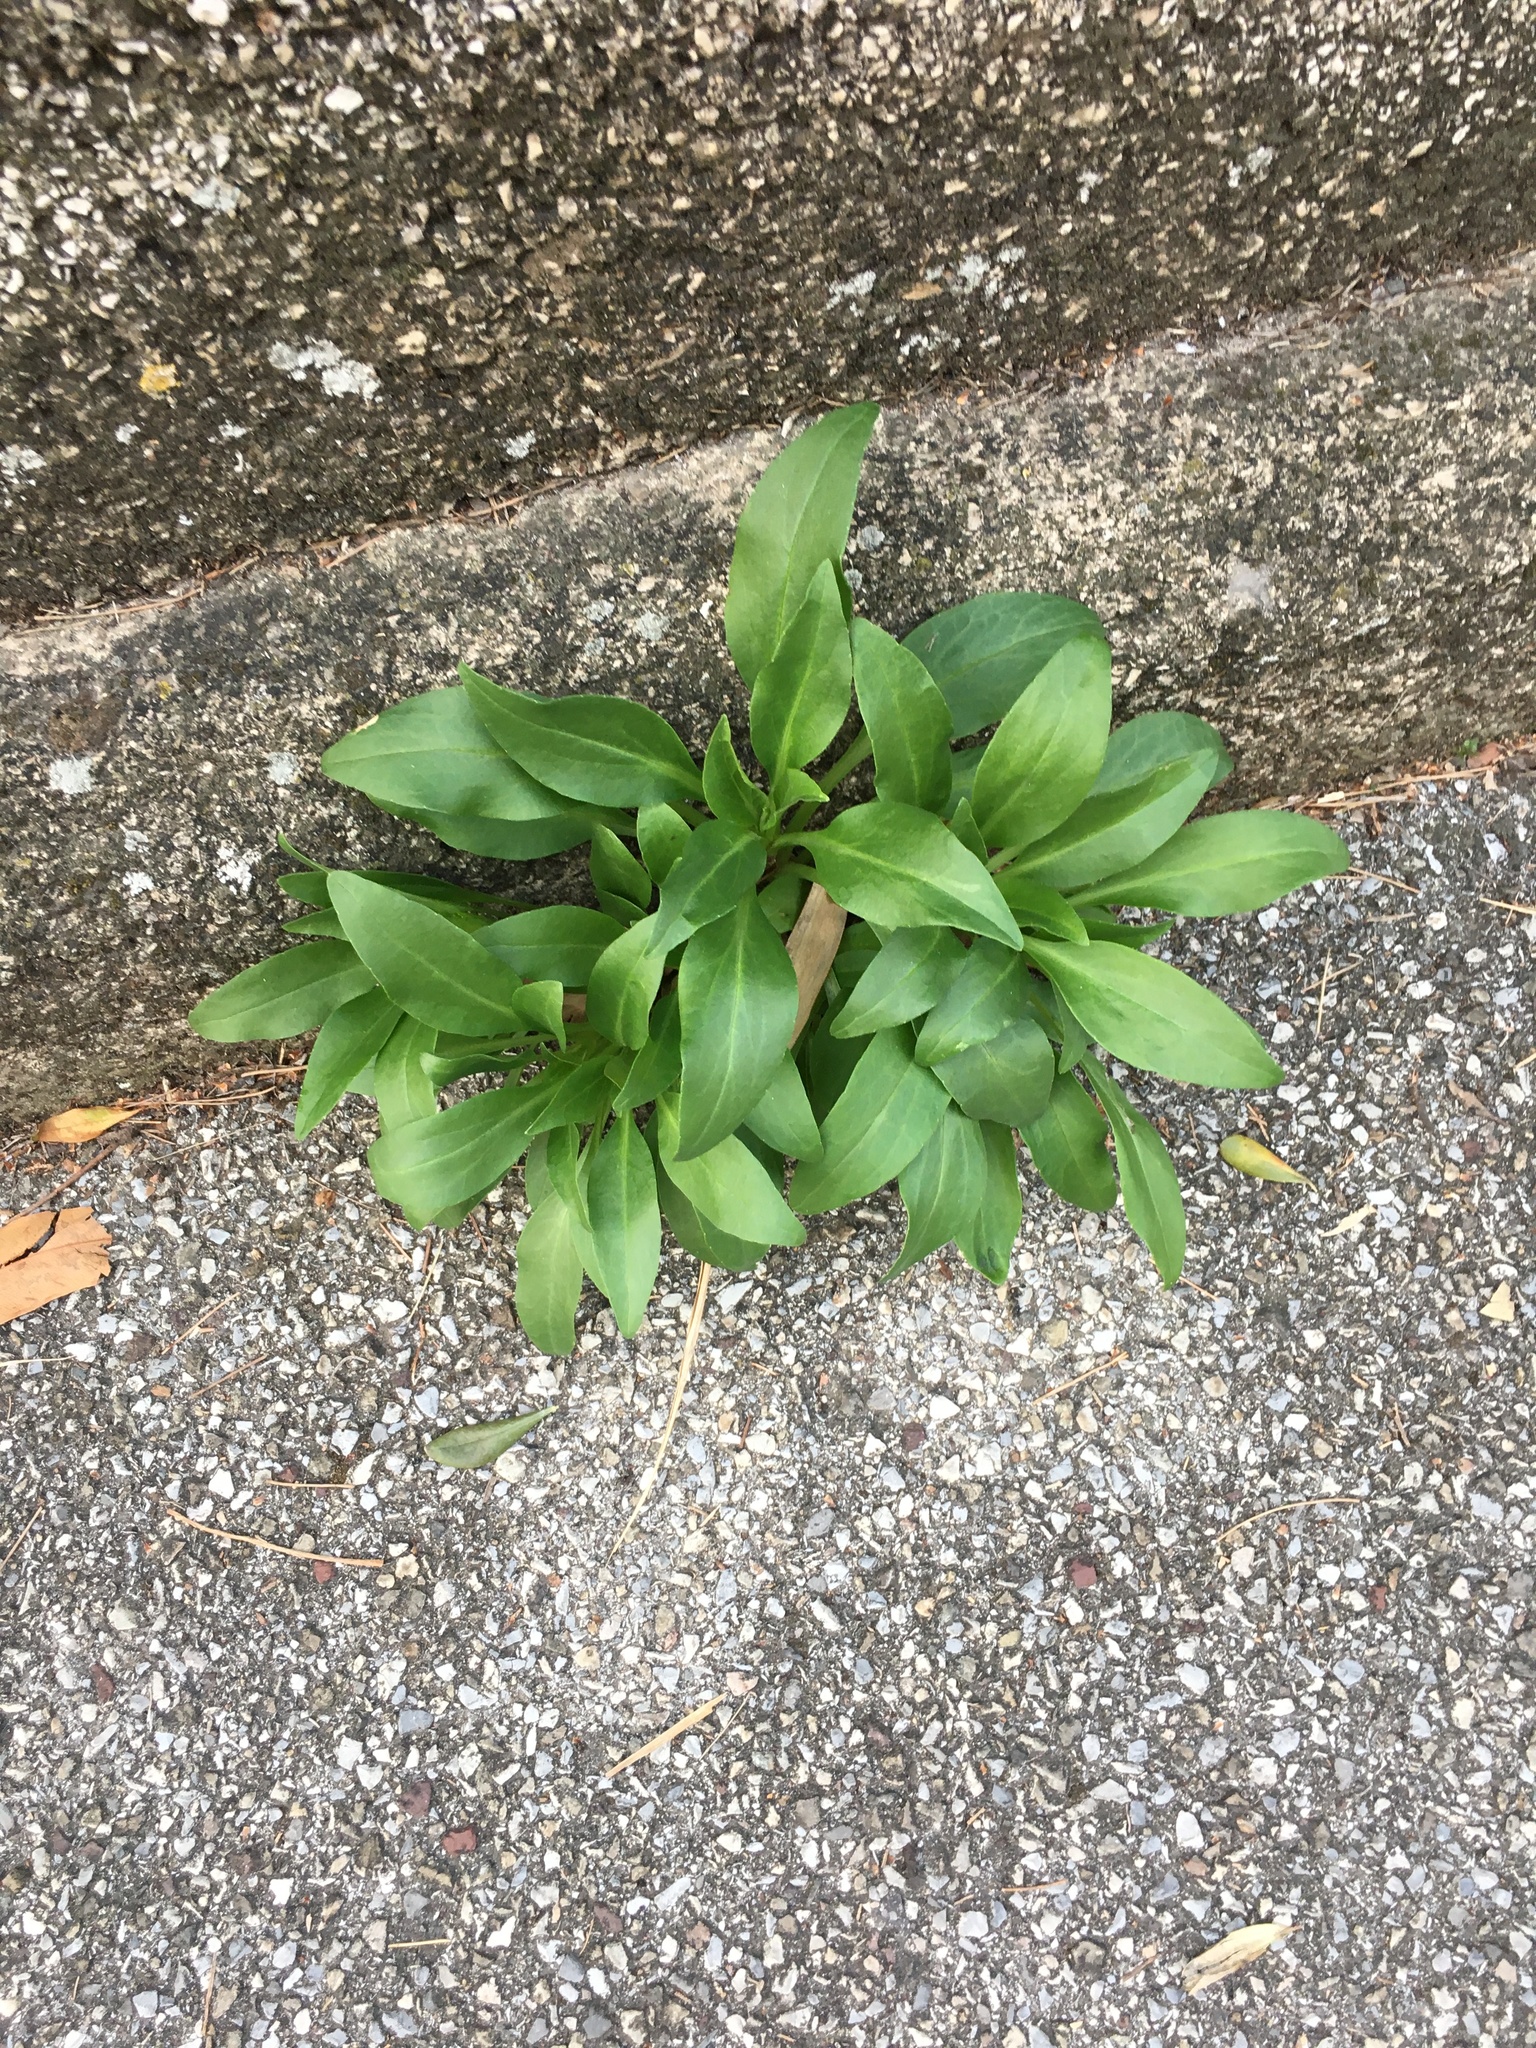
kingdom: Plantae
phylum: Tracheophyta
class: Magnoliopsida
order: Dipsacales
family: Caprifoliaceae
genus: Centranthus
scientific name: Centranthus ruber
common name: Red valerian
